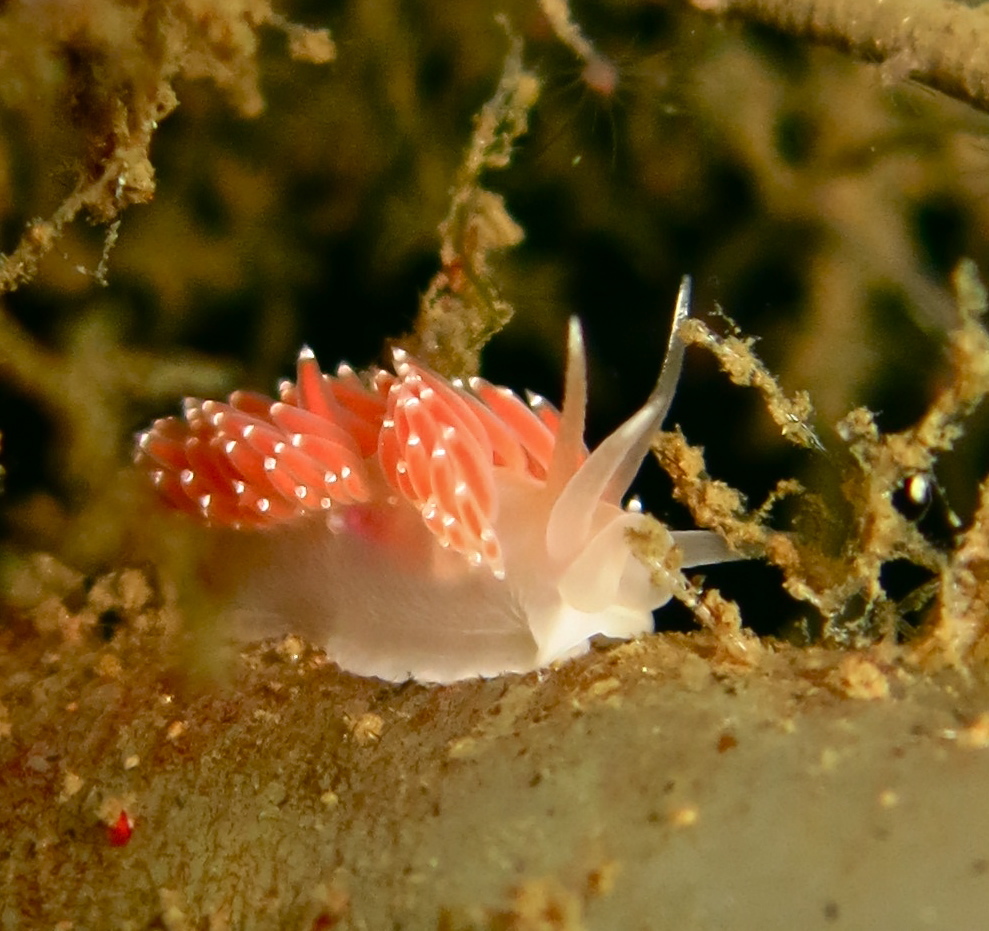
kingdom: Animalia
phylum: Mollusca
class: Gastropoda
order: Nudibranchia
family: Coryphellidae
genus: Coryphella
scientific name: Coryphella verrucosa
